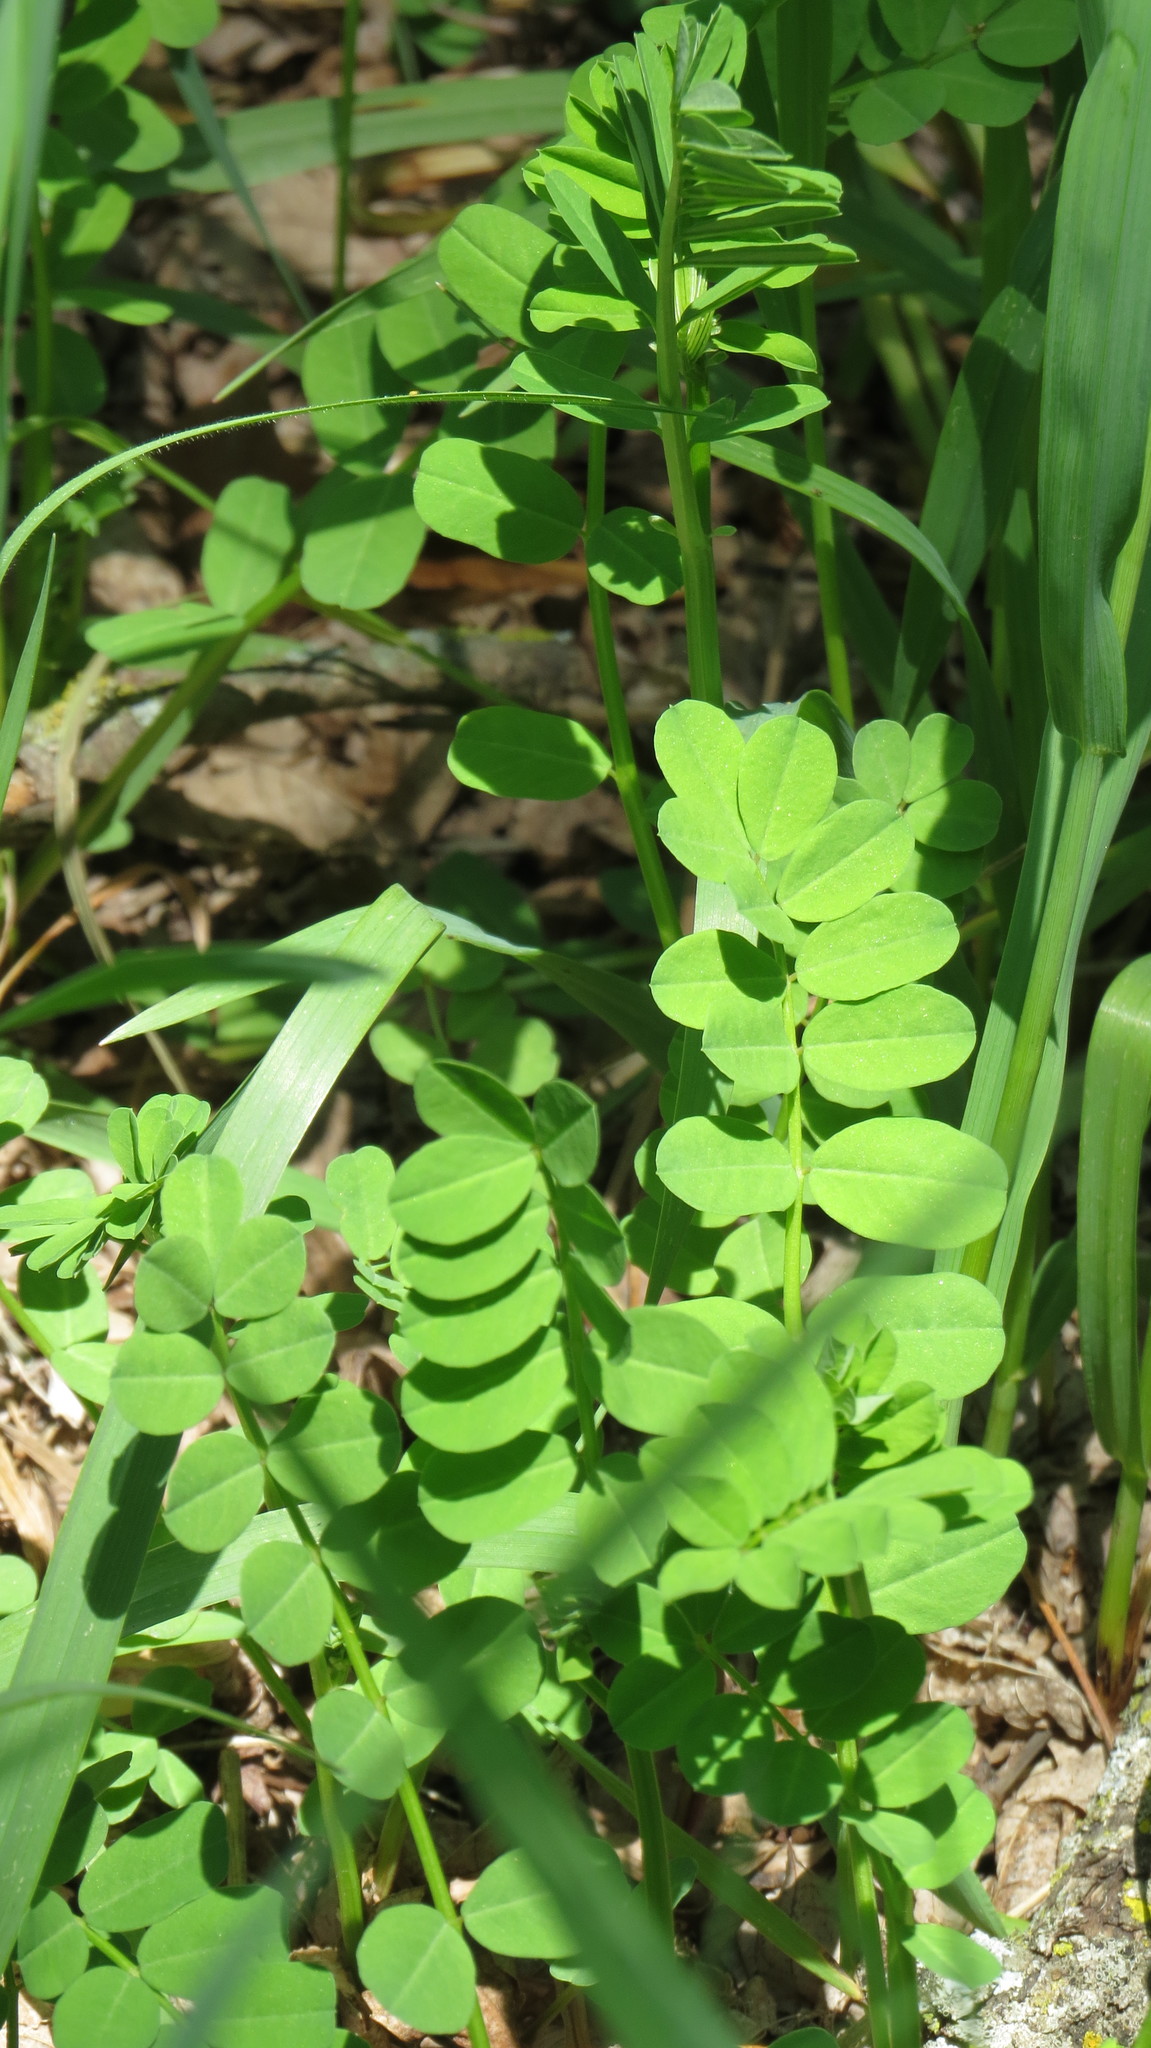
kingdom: Plantae
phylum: Tracheophyta
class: Magnoliopsida
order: Fabales
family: Fabaceae
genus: Coronilla
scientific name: Coronilla varia
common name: Crownvetch
